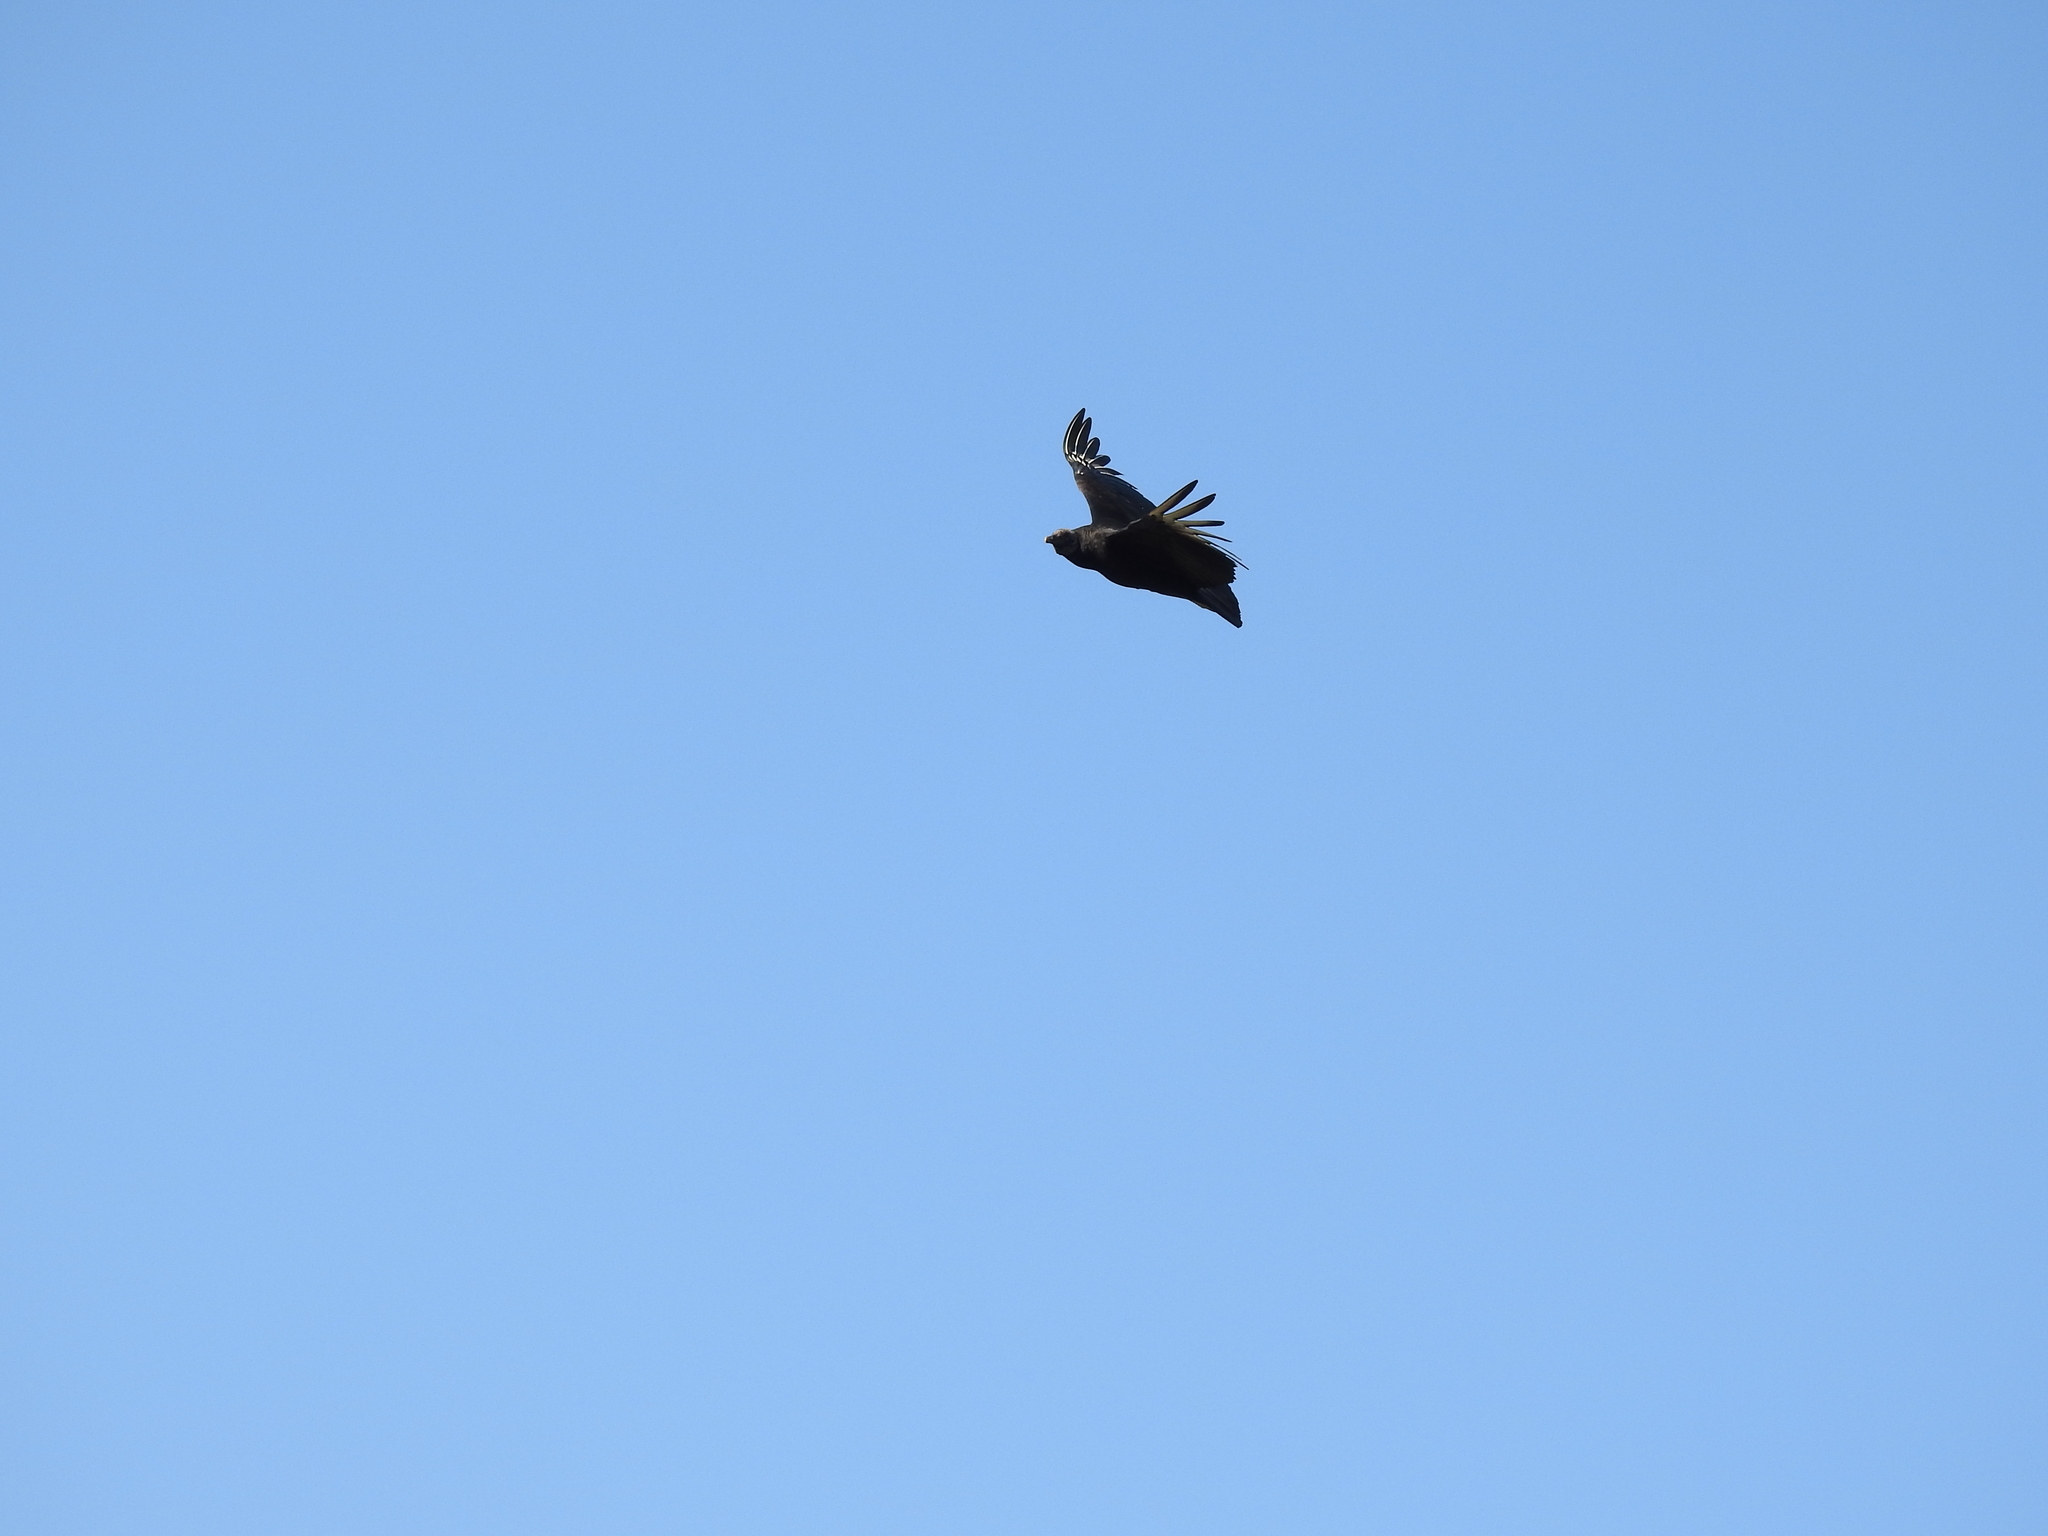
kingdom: Animalia
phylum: Chordata
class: Aves
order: Accipitriformes
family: Cathartidae
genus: Coragyps
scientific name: Coragyps atratus
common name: Black vulture
